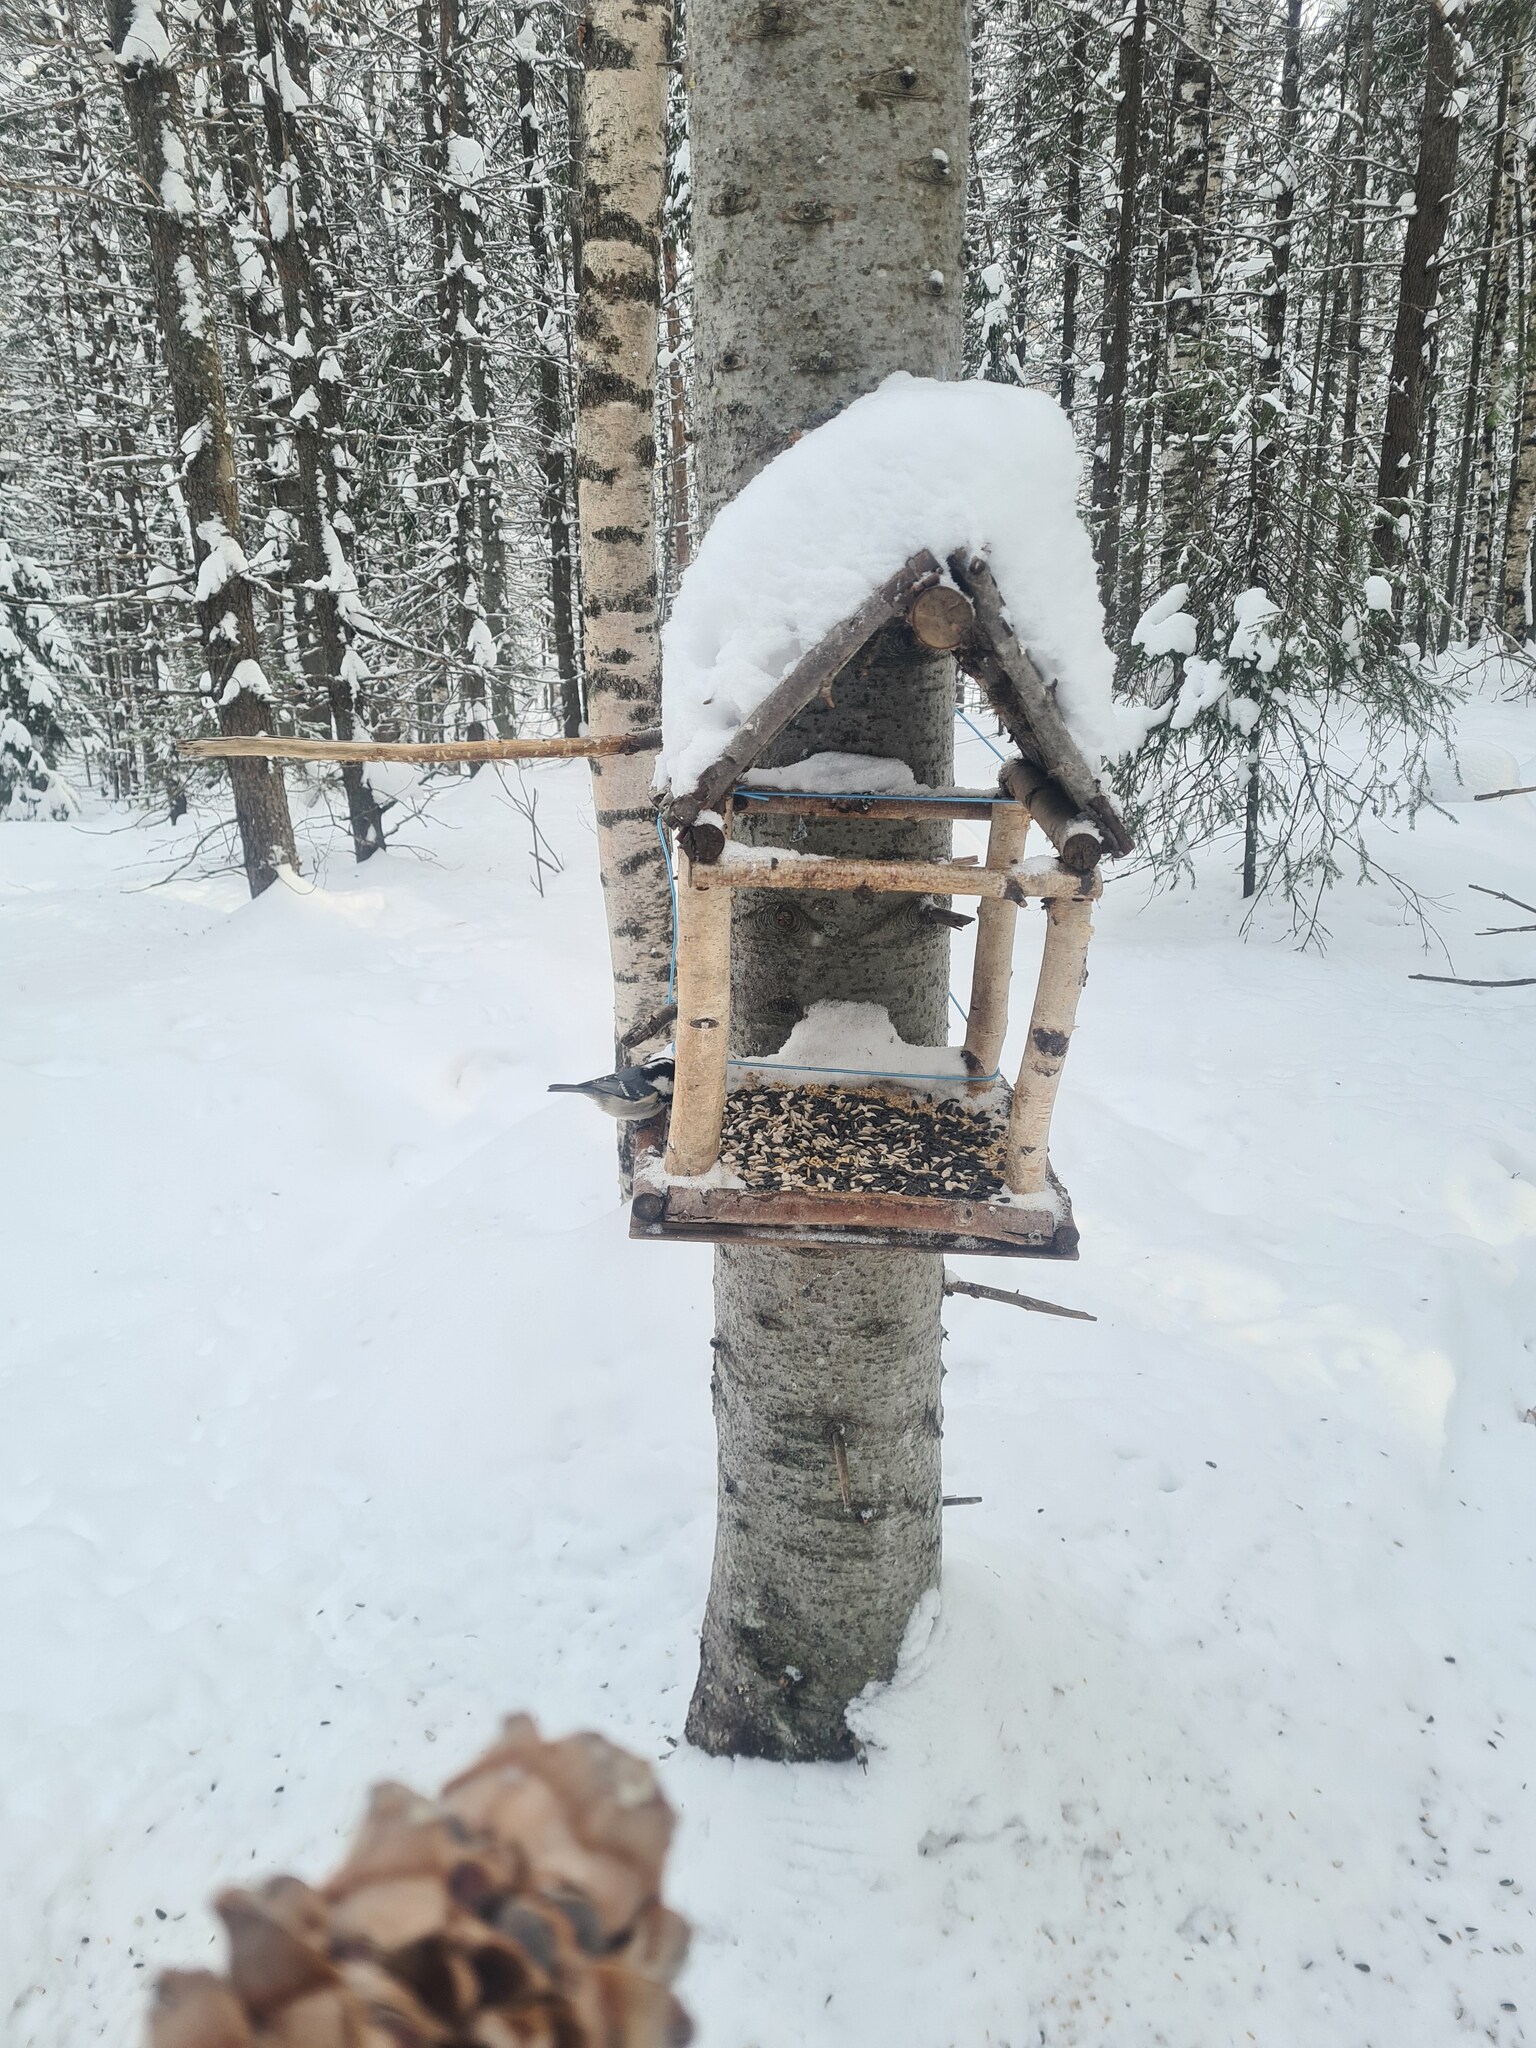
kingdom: Animalia
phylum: Chordata
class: Aves
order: Passeriformes
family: Paridae
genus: Periparus
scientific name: Periparus ater
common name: Coal tit
